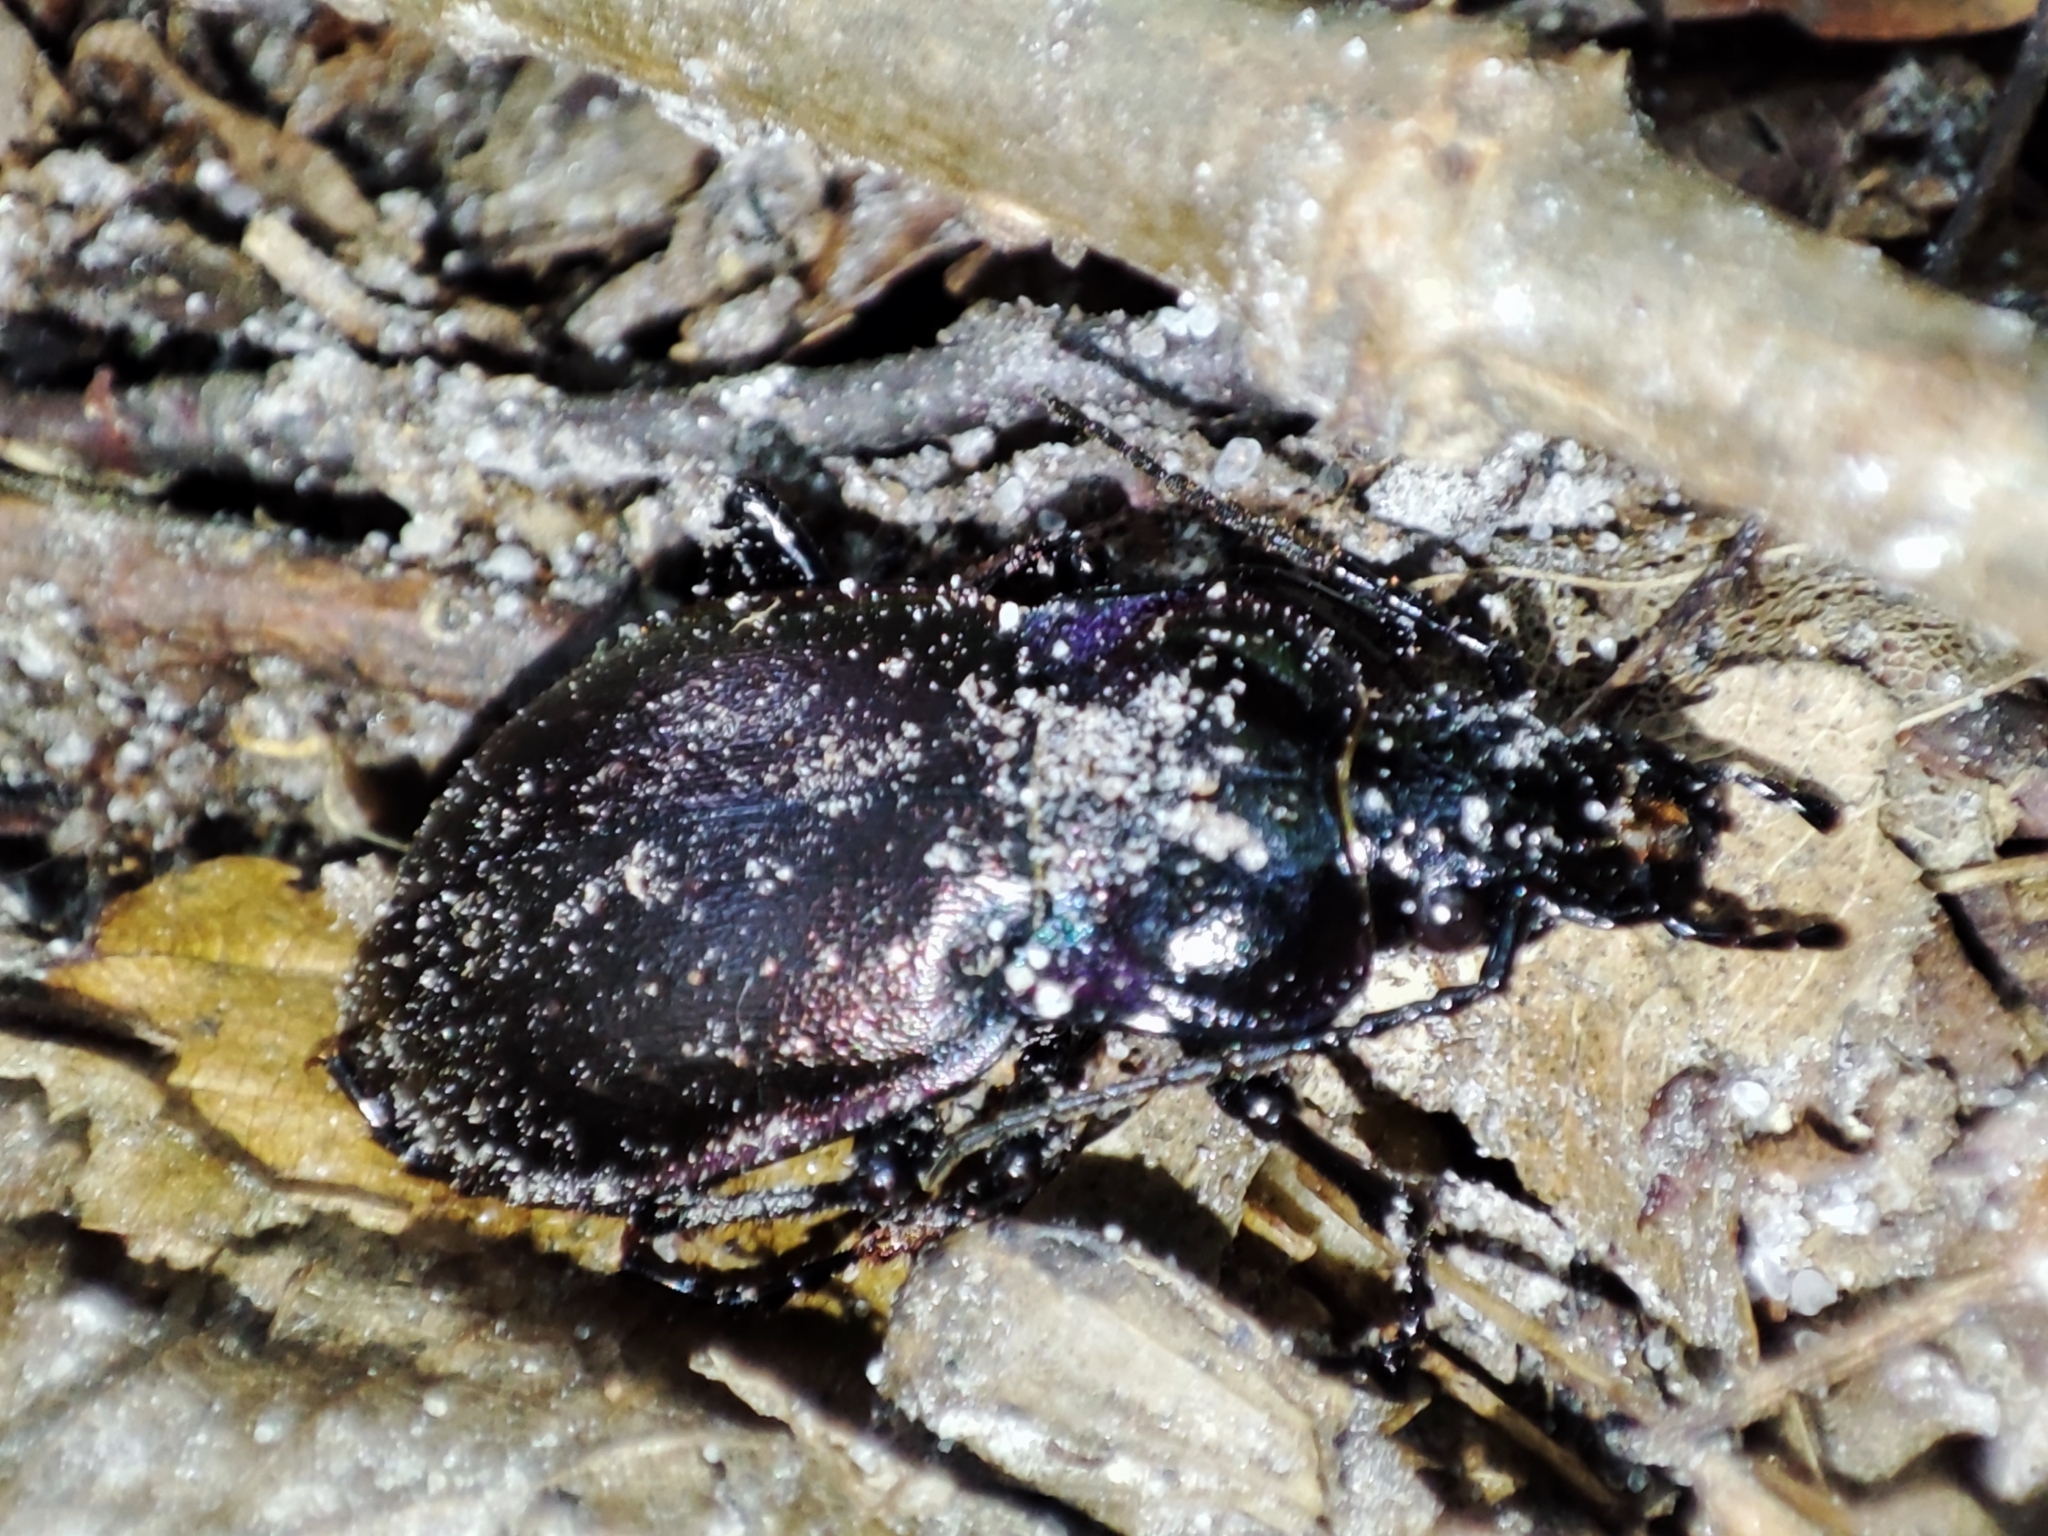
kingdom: Animalia
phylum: Arthropoda
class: Insecta
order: Coleoptera
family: Carabidae
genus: Carabus
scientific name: Carabus nemoralis
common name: European ground beetle
